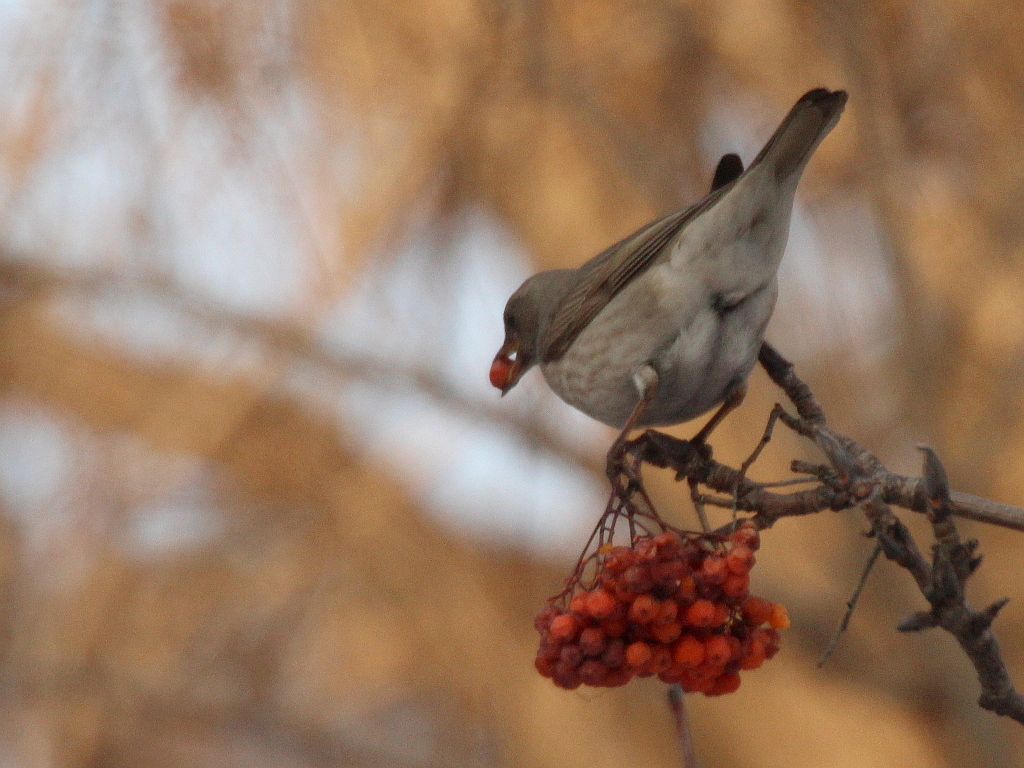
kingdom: Animalia
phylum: Chordata
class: Aves
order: Passeriformes
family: Turdidae
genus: Turdus
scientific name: Turdus atrogularis
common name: Black-throated thrush
